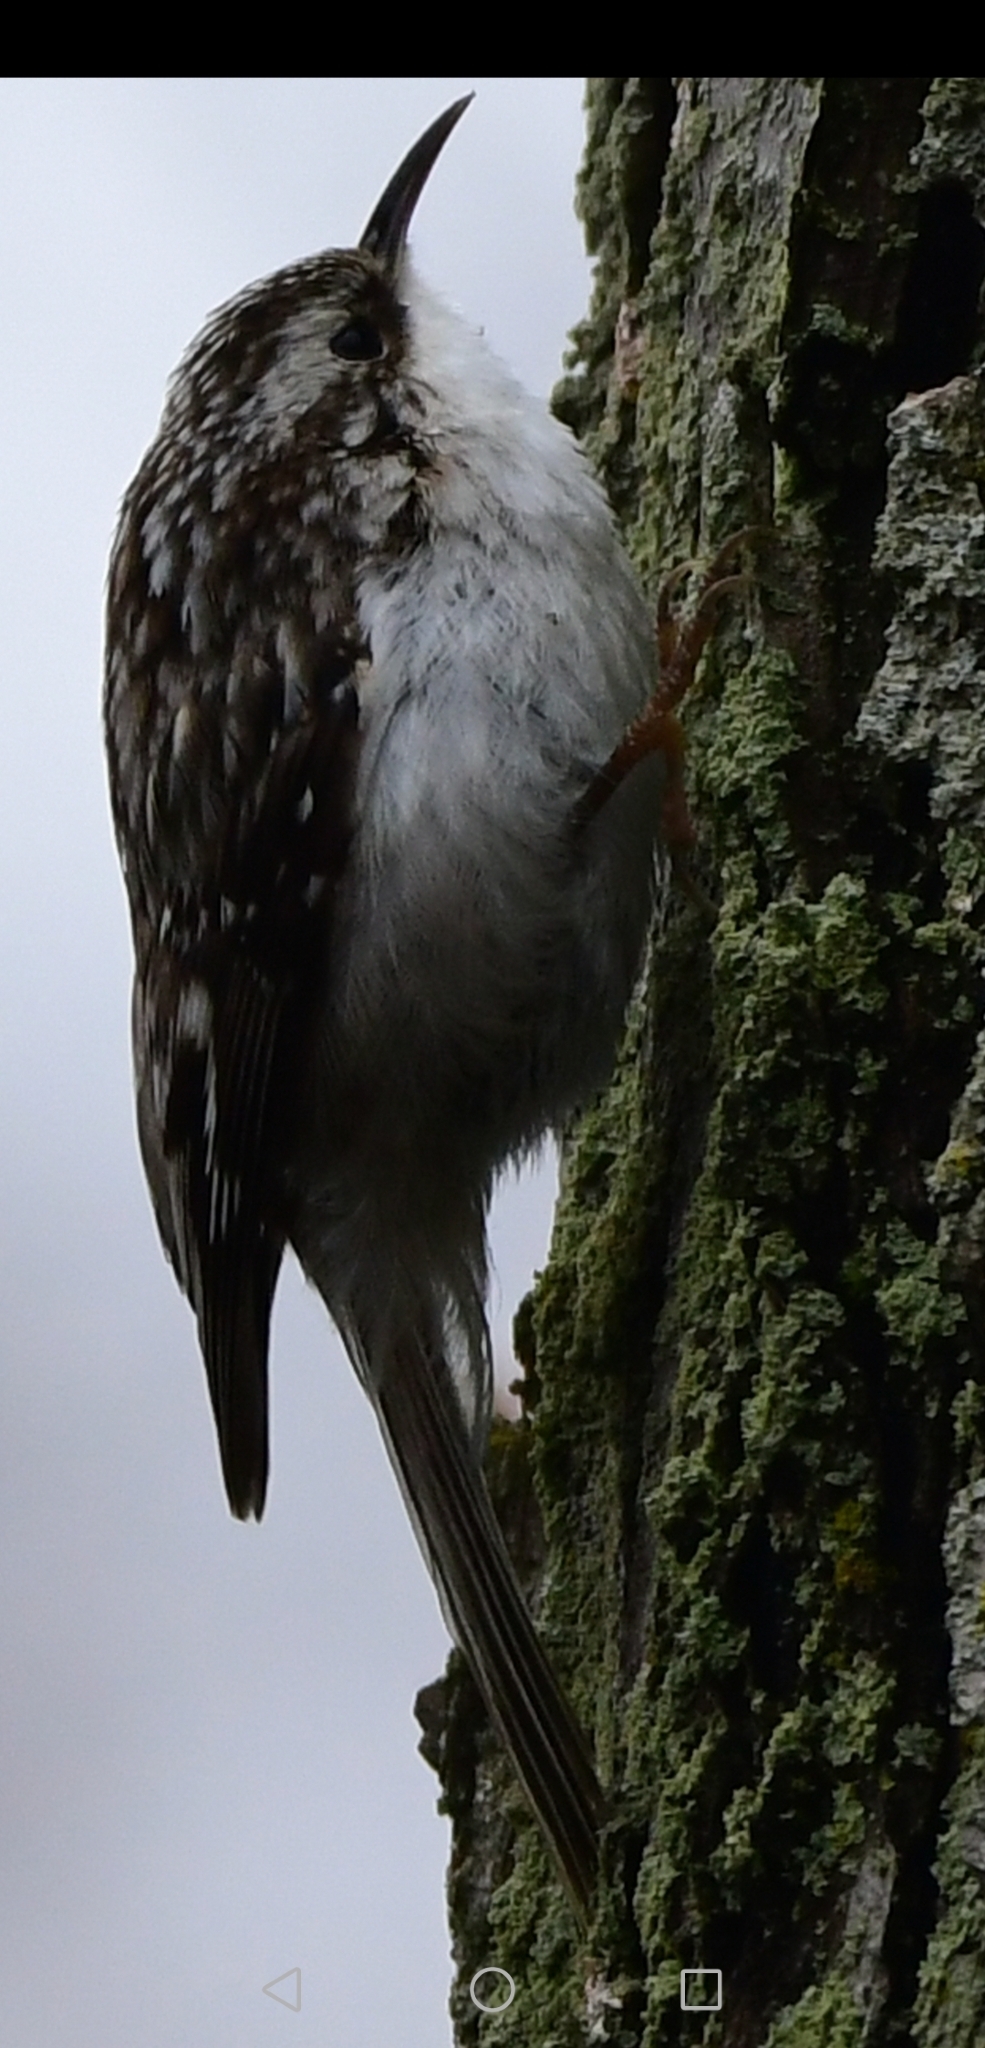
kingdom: Animalia
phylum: Chordata
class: Aves
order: Passeriformes
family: Certhiidae
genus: Certhia
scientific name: Certhia americana
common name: Brown creeper
